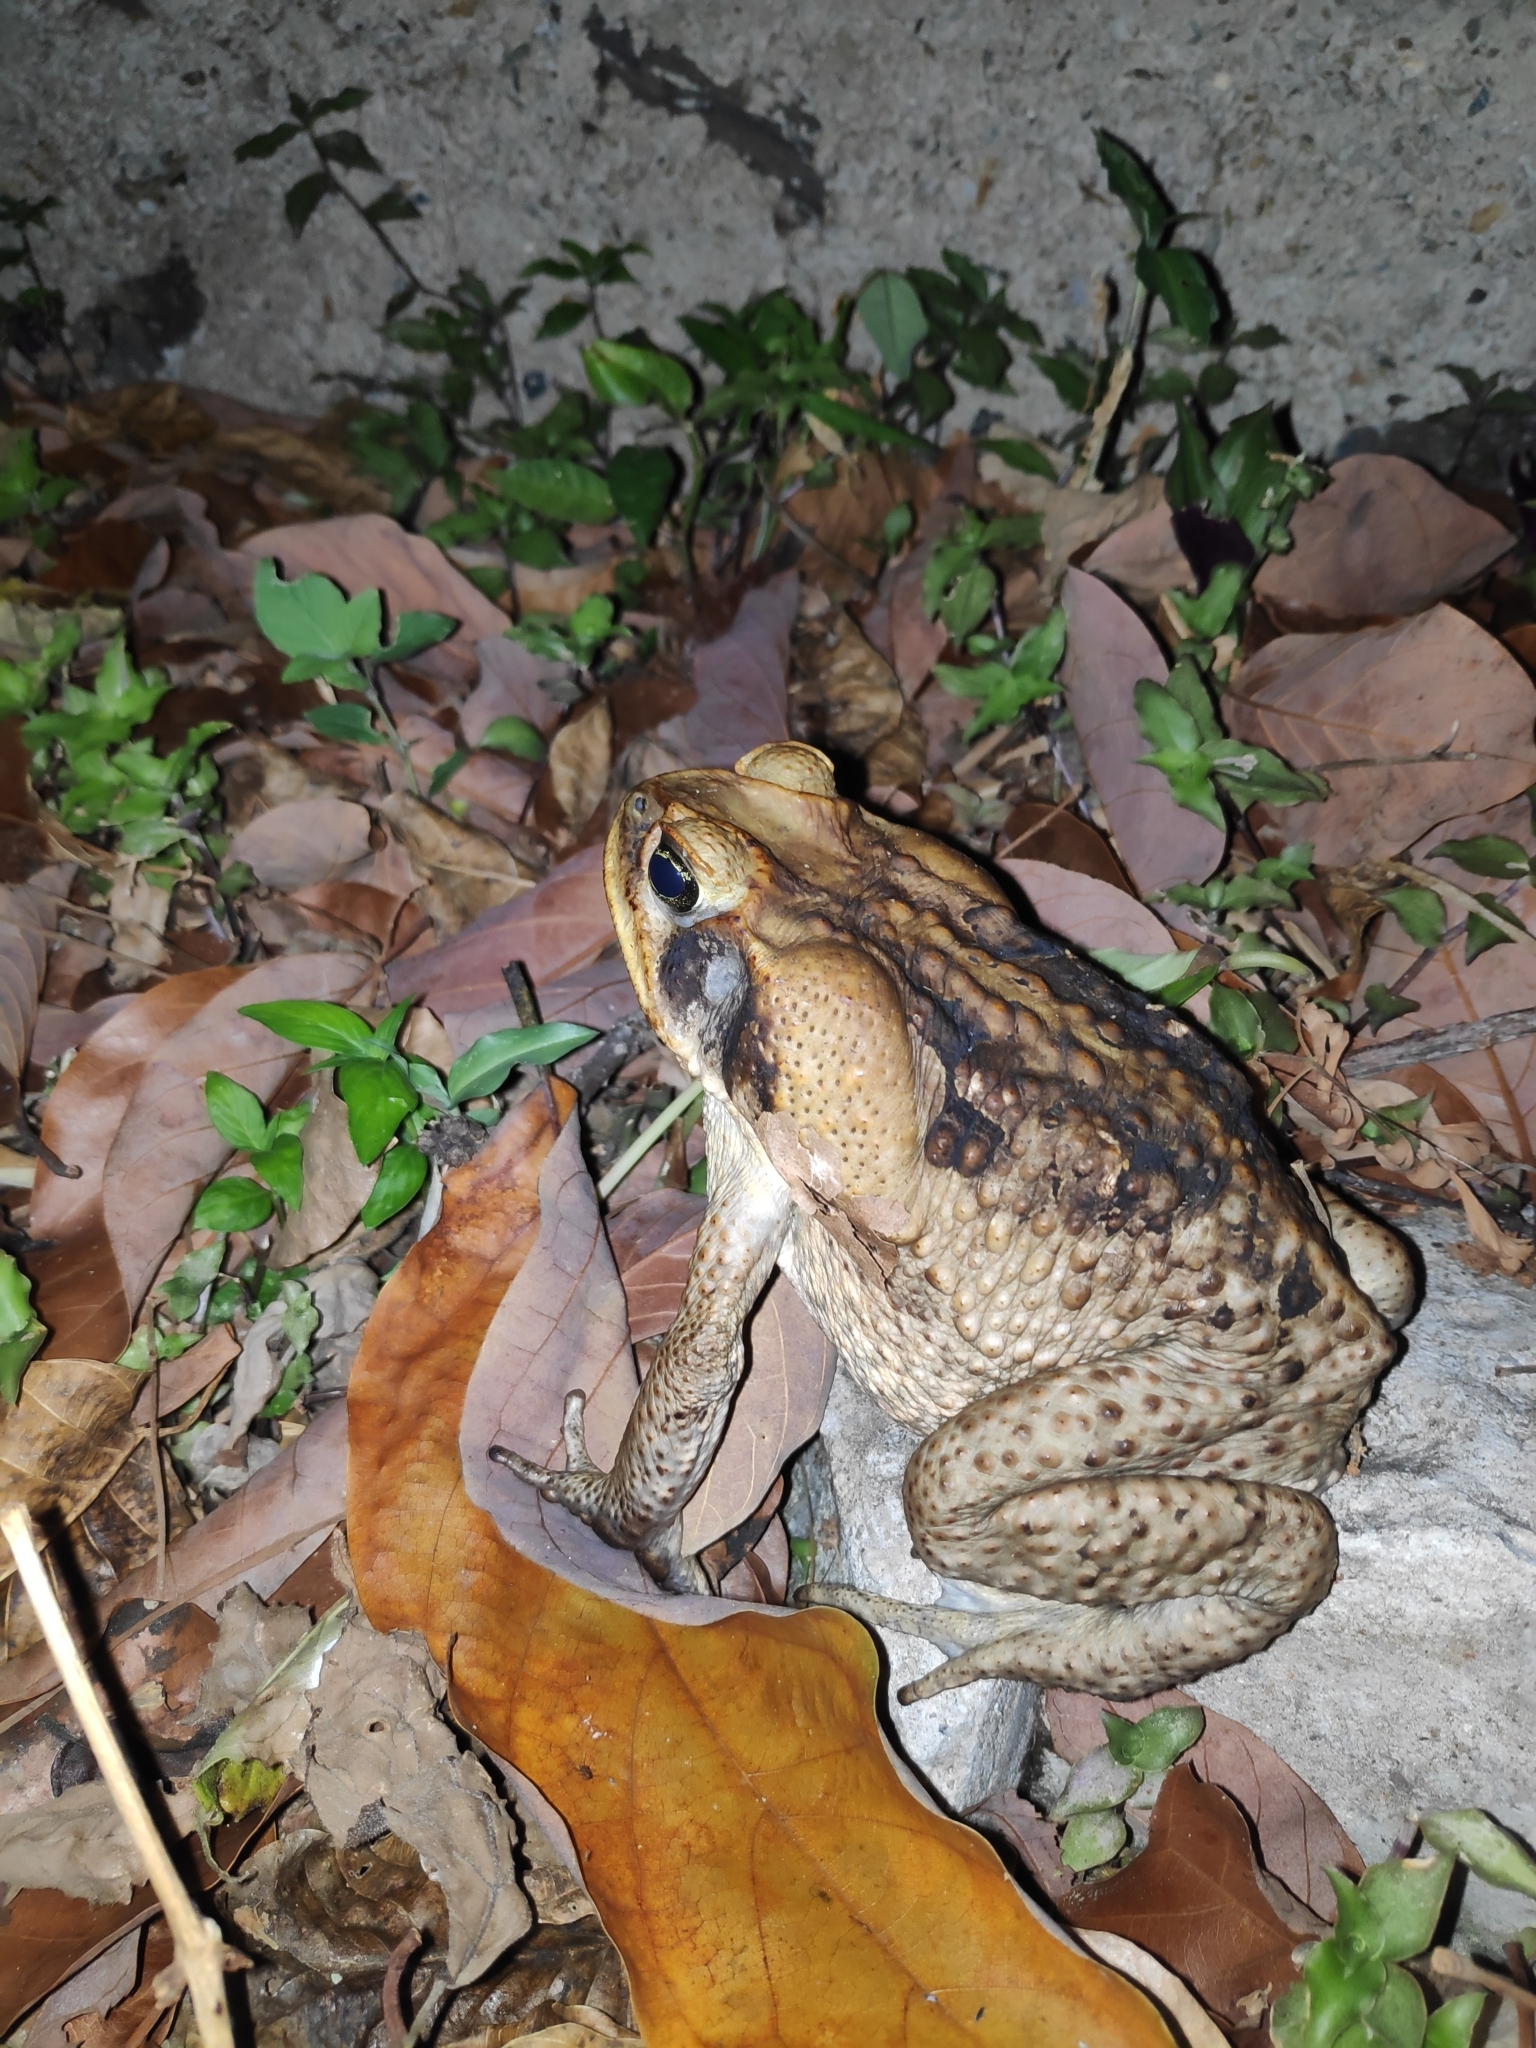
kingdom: Animalia
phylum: Chordata
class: Amphibia
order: Anura
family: Bufonidae
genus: Rhinella
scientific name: Rhinella marina
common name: Cane toad
